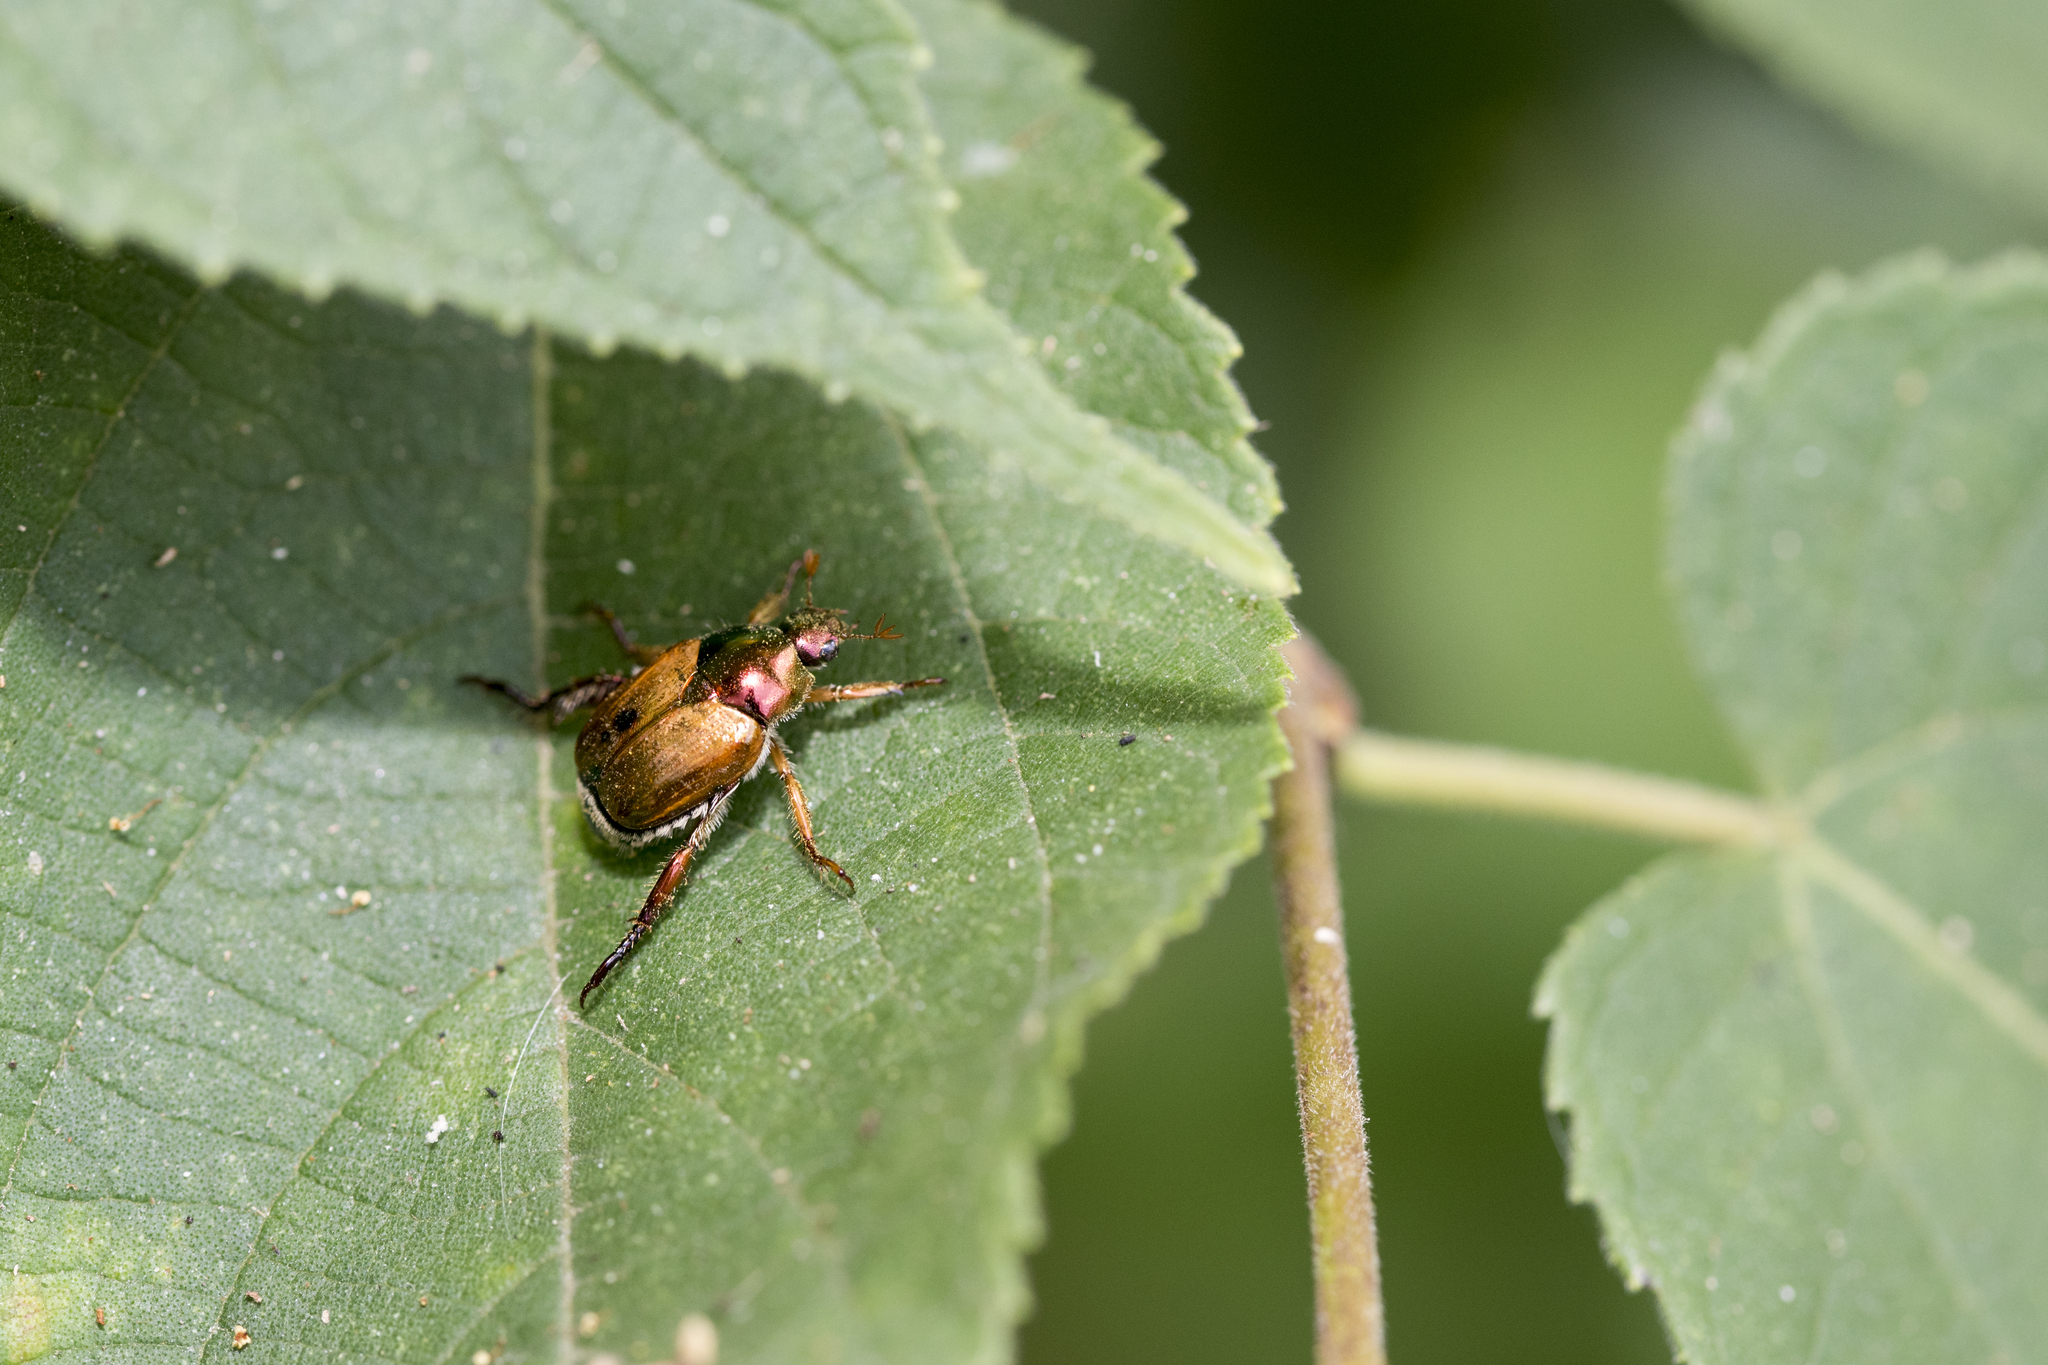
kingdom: Animalia
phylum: Arthropoda
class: Insecta
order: Coleoptera
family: Scarabaeidae
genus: Popillia
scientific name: Popillia sauteri
